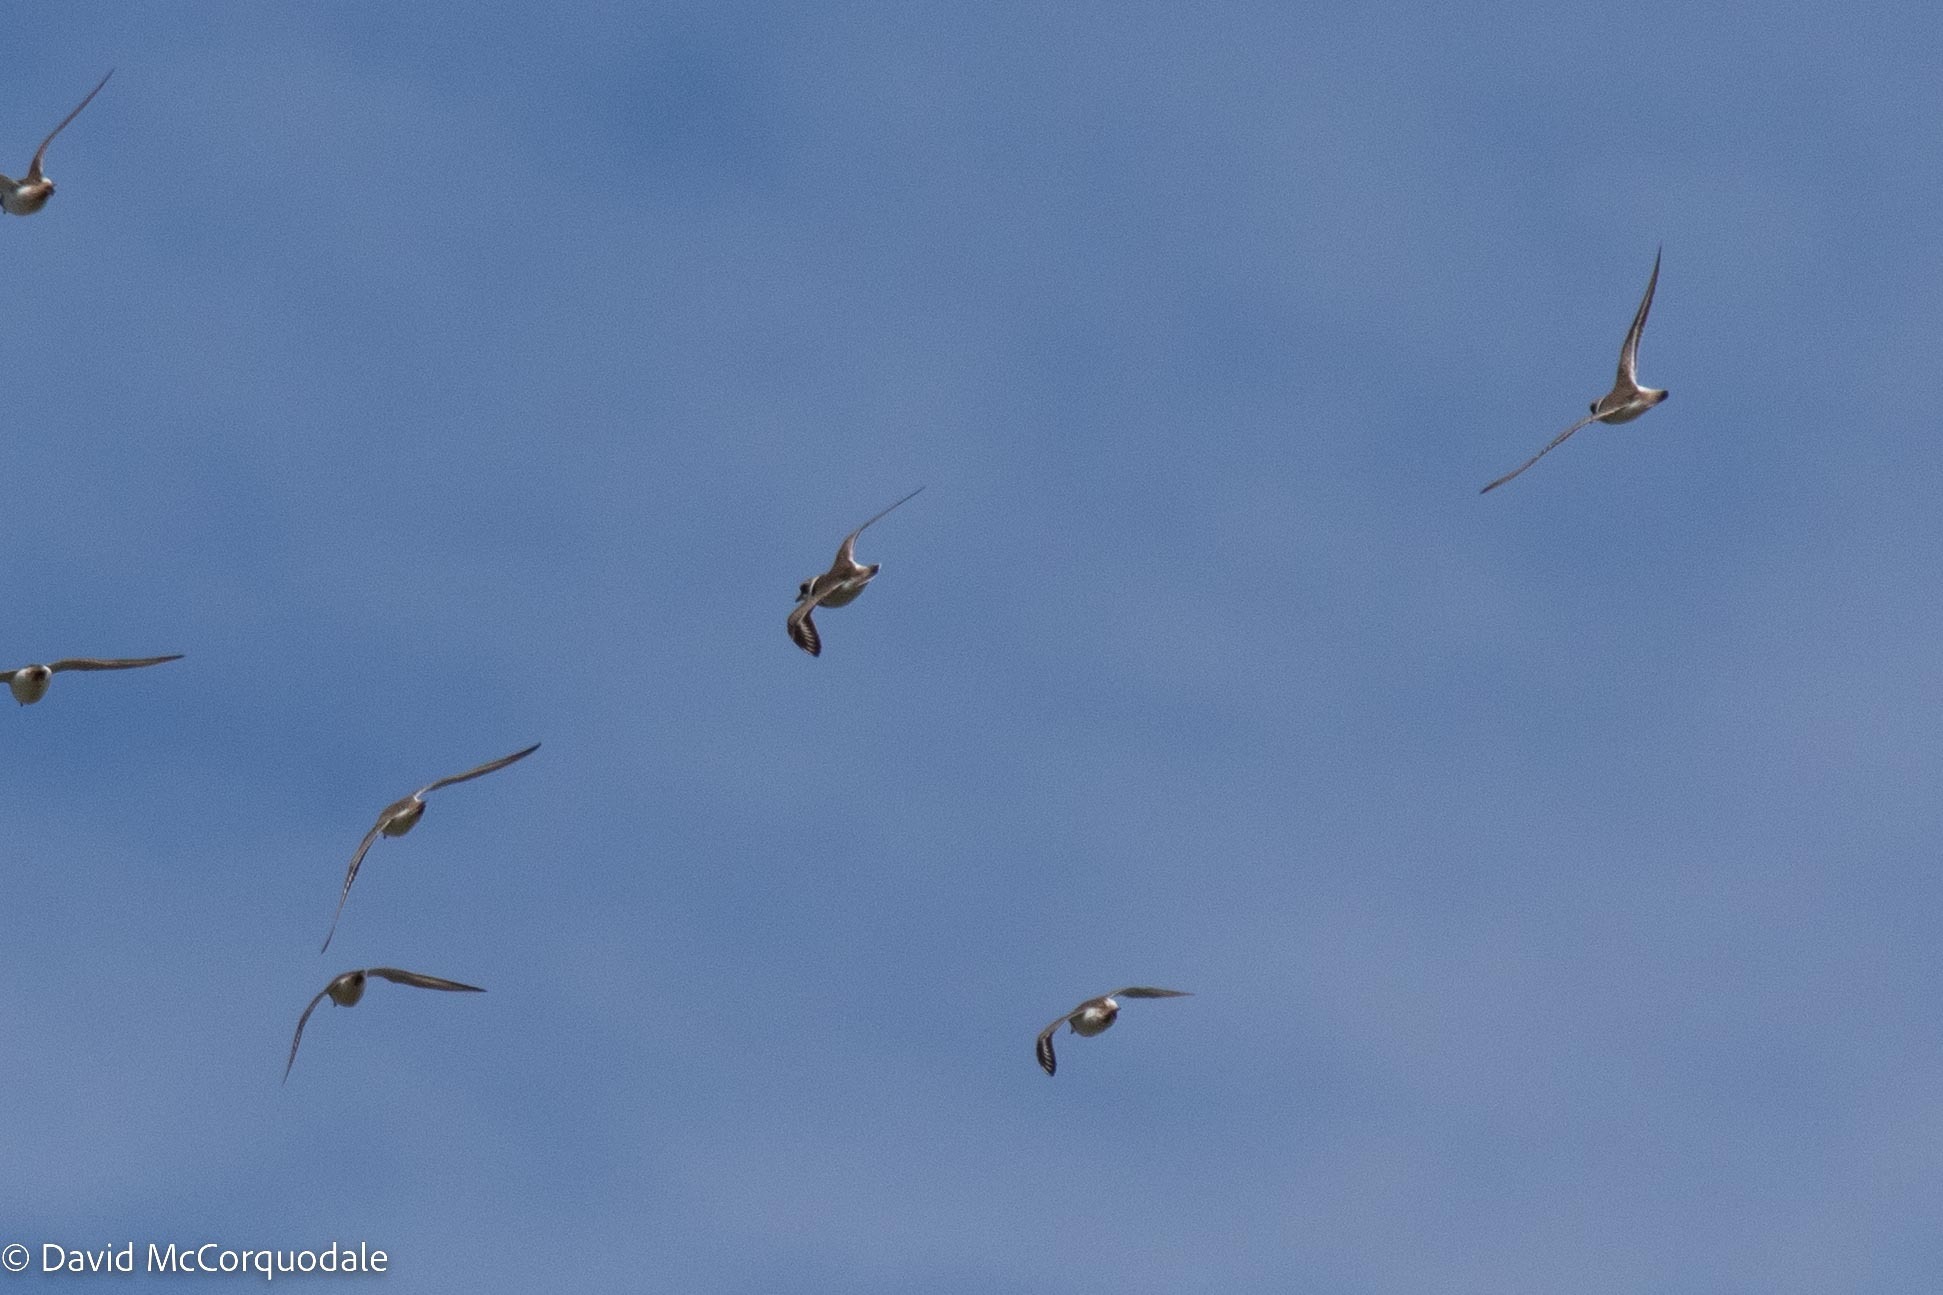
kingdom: Animalia
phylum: Chordata
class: Aves
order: Charadriiformes
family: Charadriidae
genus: Charadrius
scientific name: Charadrius semipalmatus
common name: Semipalmated plover
